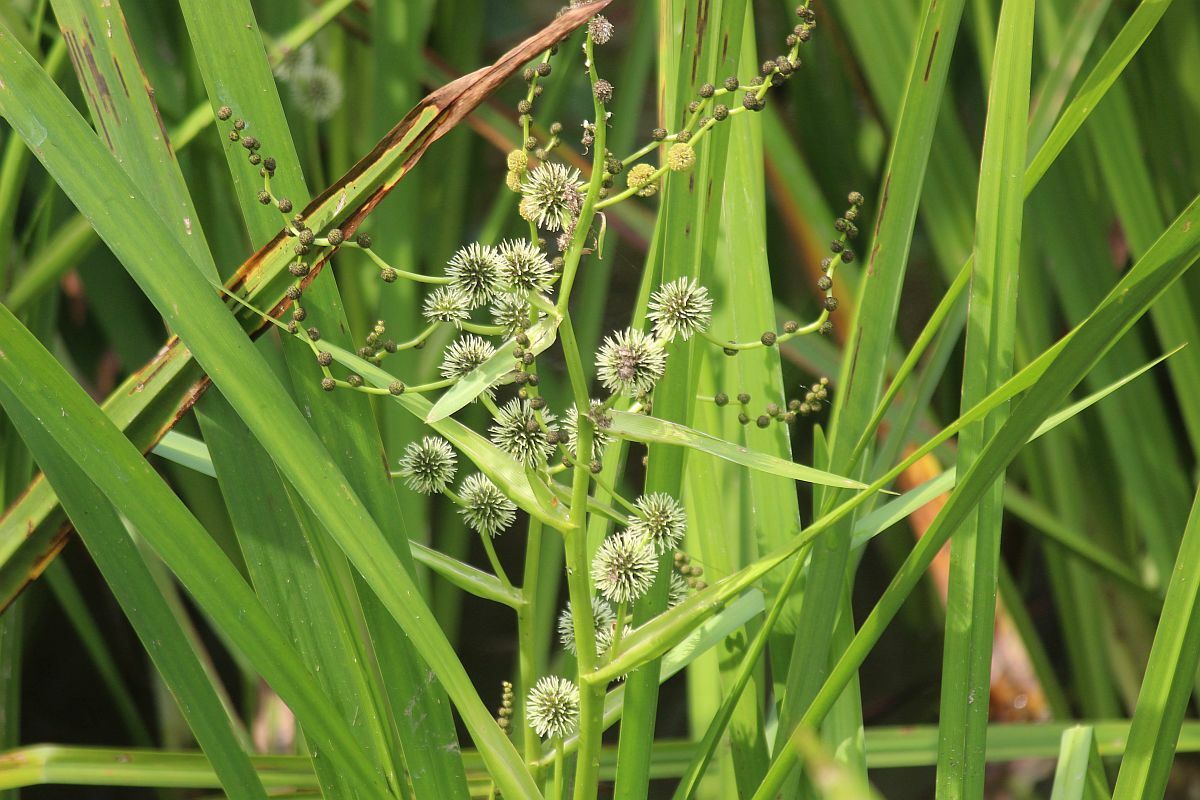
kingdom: Plantae
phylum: Tracheophyta
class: Liliopsida
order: Poales
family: Typhaceae
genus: Sparganium
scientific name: Sparganium erectum
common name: Branched bur-reed
